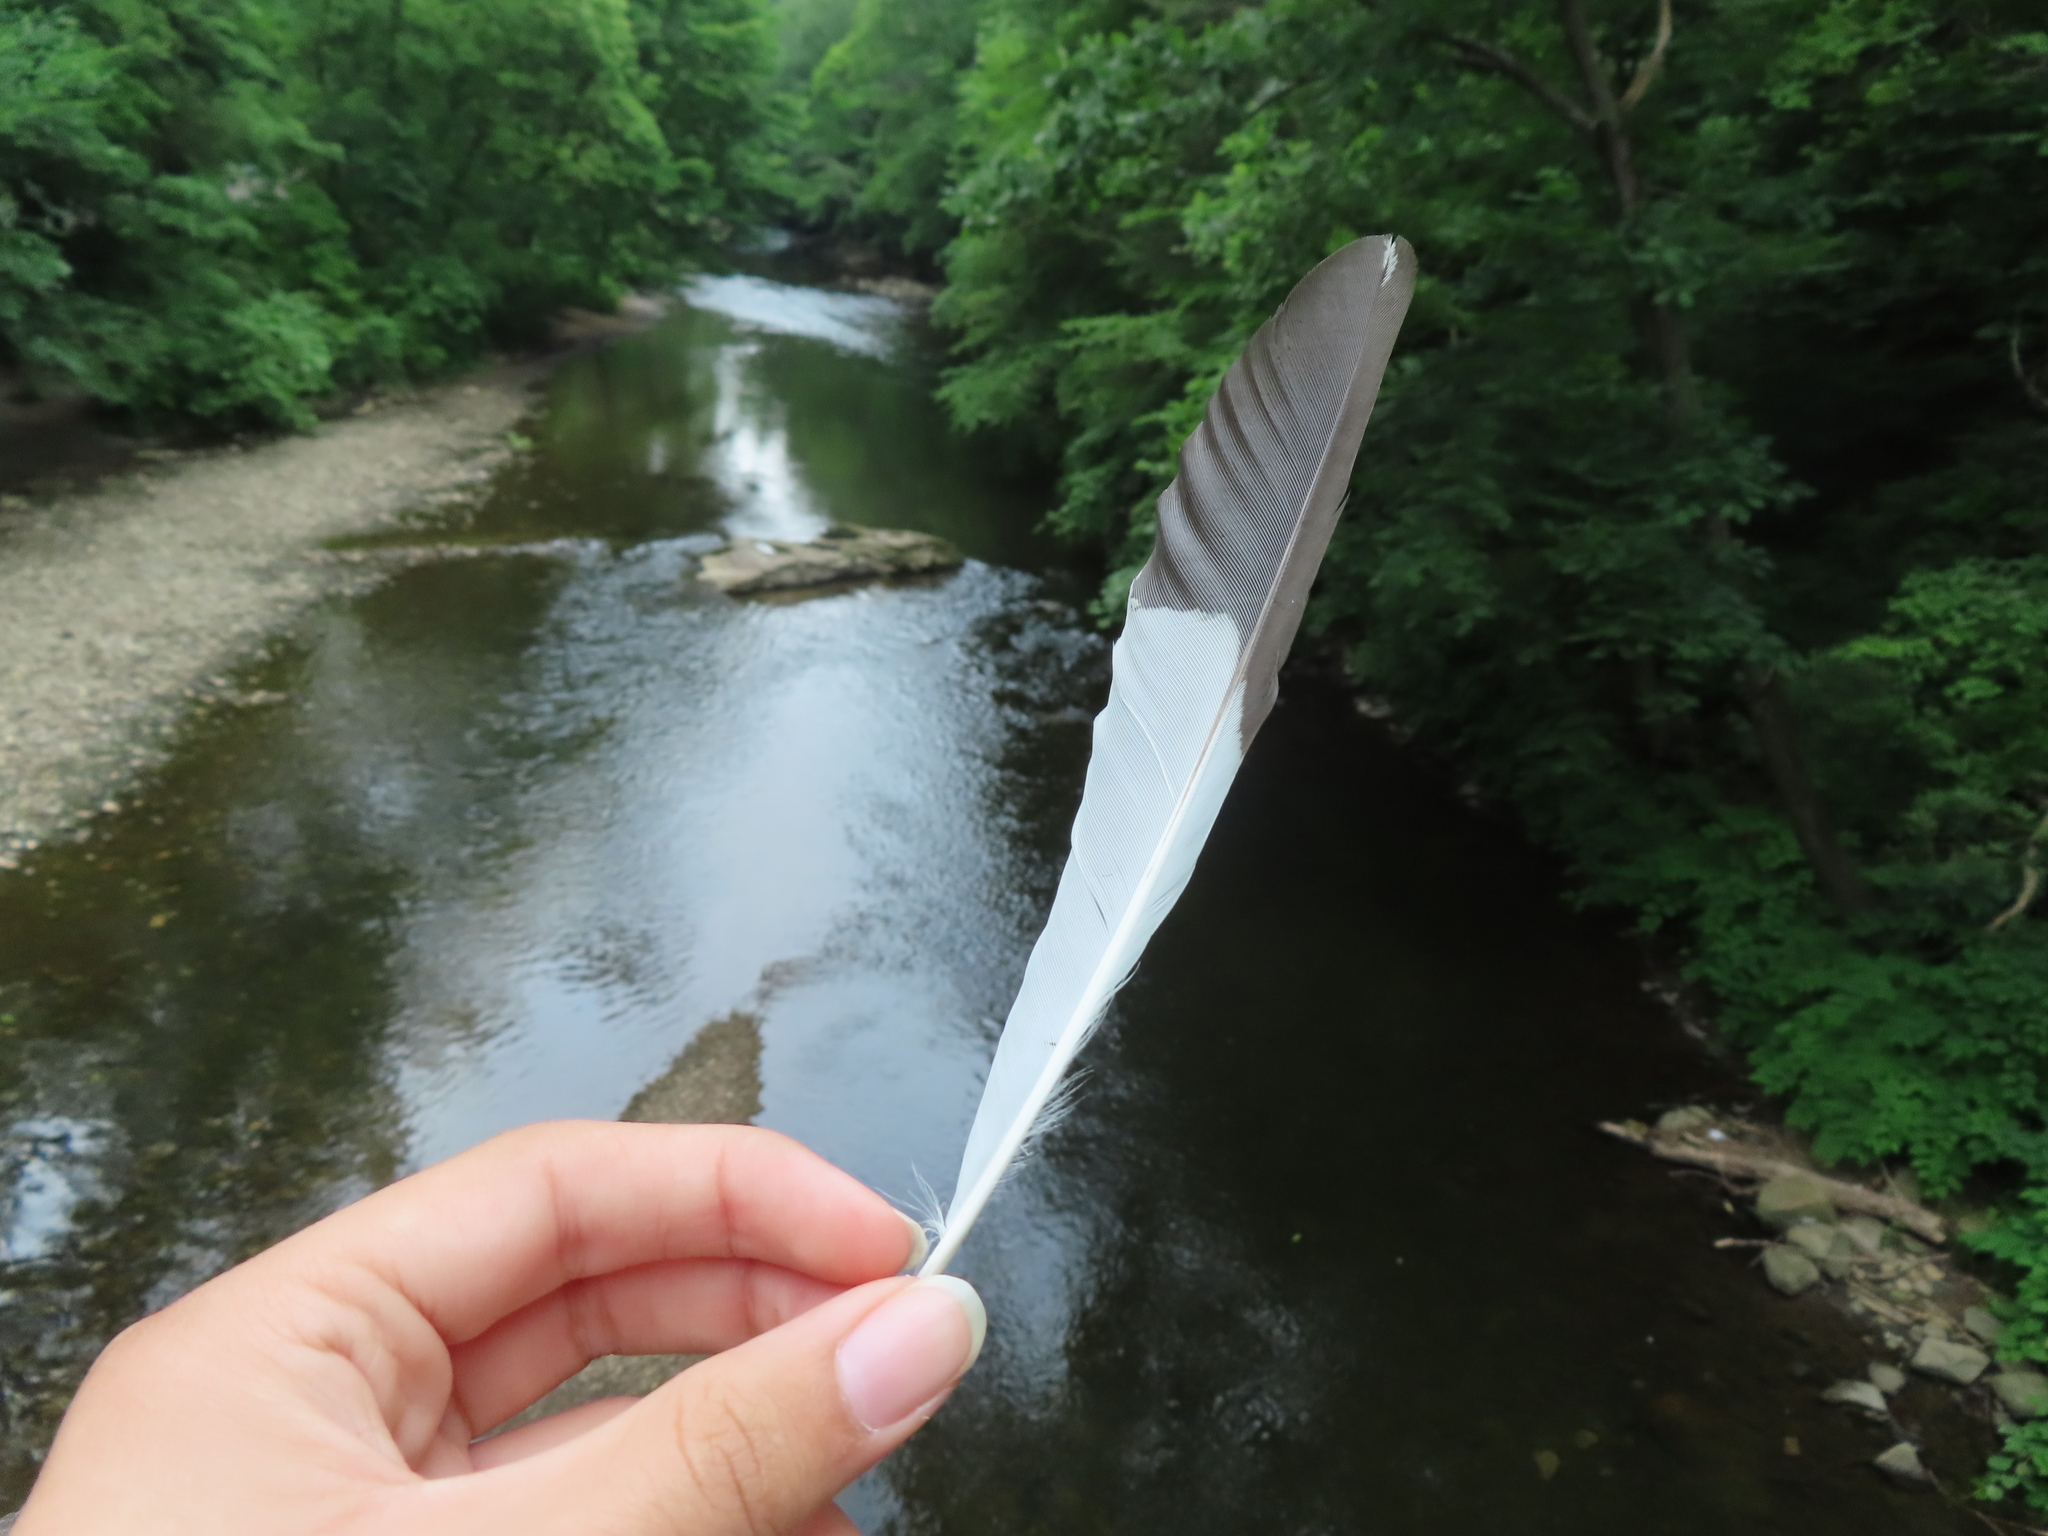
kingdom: Animalia
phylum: Chordata
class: Aves
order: Piciformes
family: Picidae
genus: Dryocopus
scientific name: Dryocopus pileatus
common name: Pileated woodpecker
